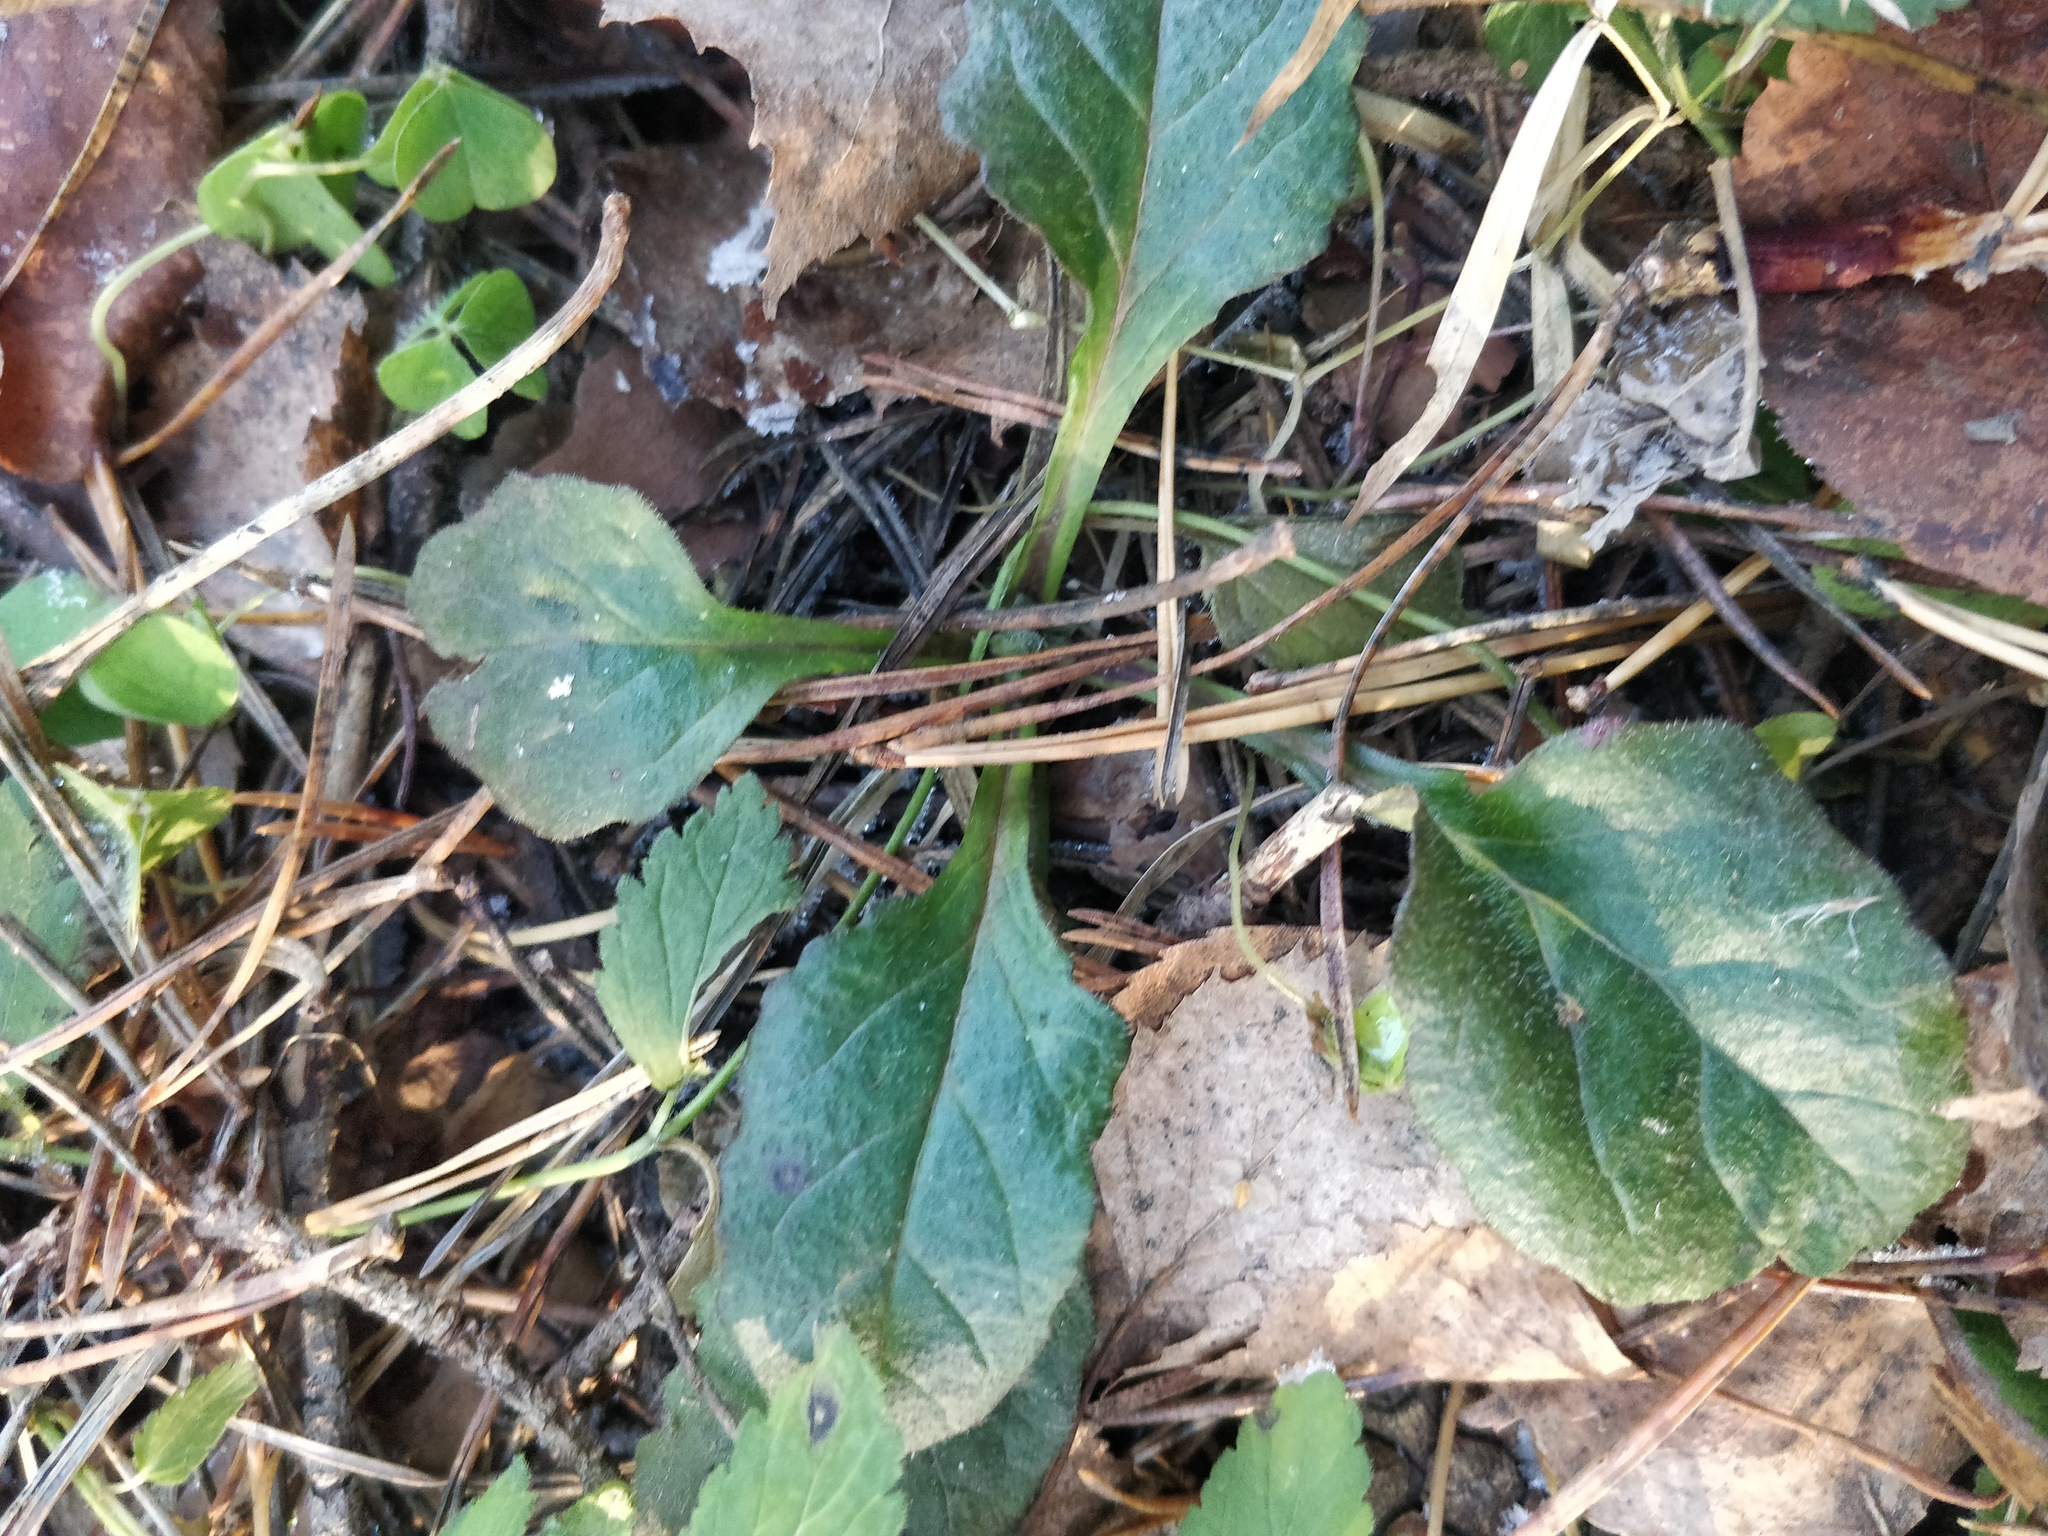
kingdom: Plantae
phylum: Tracheophyta
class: Magnoliopsida
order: Lamiales
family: Lamiaceae
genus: Ajuga
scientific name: Ajuga reptans
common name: Bugle
